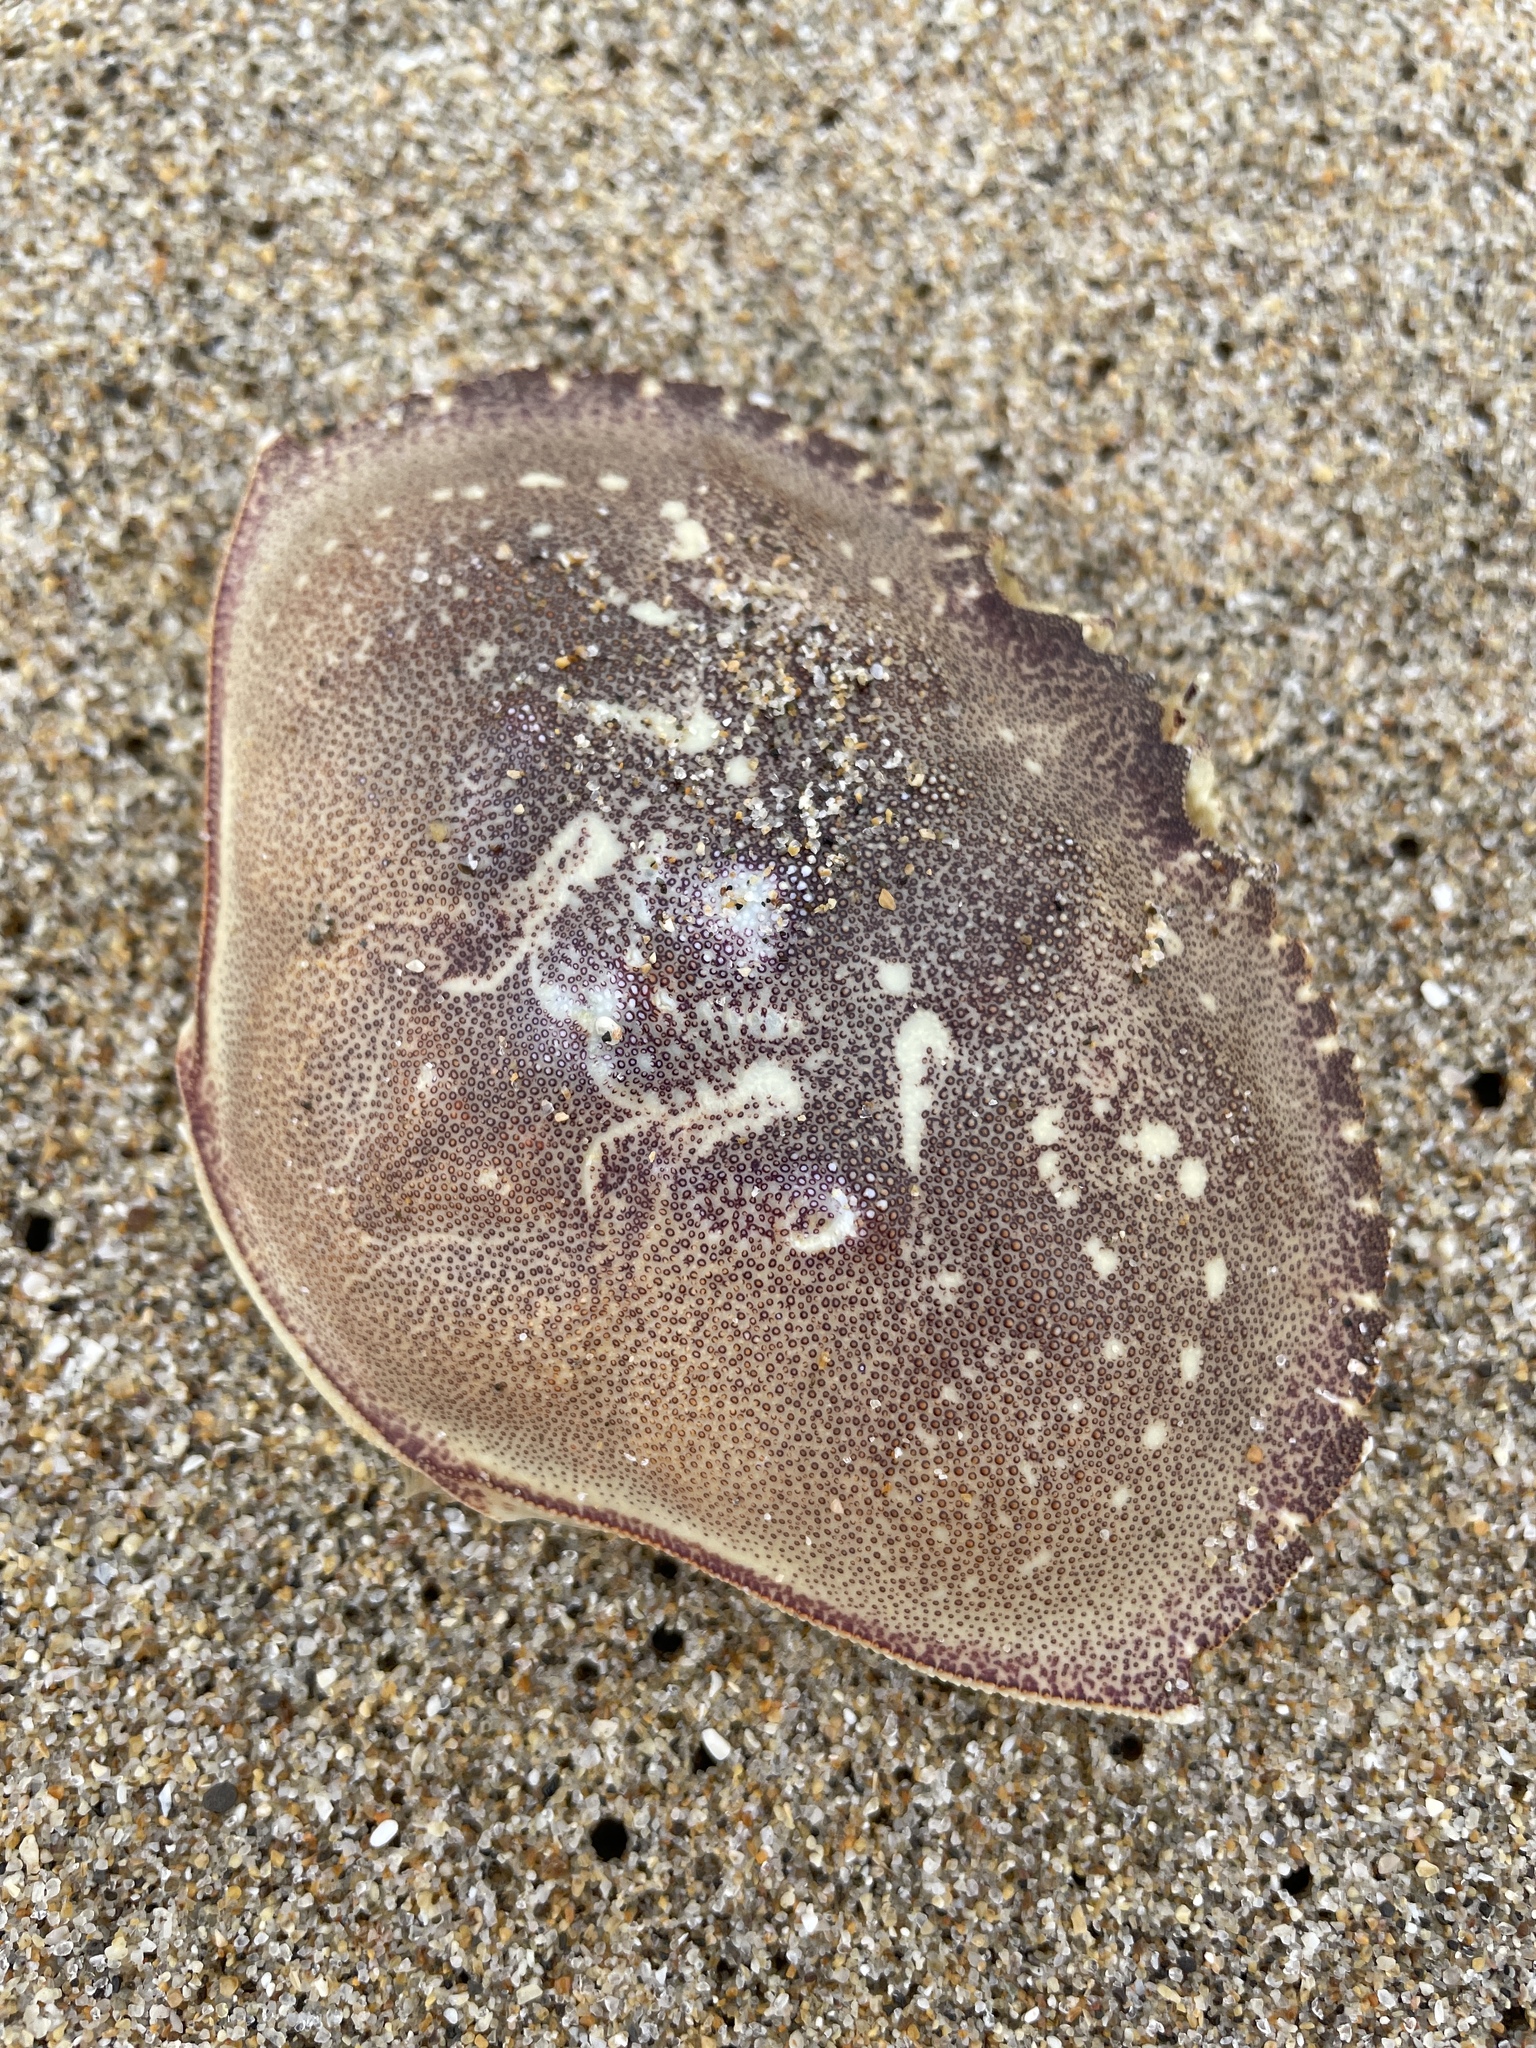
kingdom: Animalia
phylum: Arthropoda
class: Malacostraca
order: Decapoda
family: Cancridae
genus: Metacarcinus
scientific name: Metacarcinus magister
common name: Californian crab
